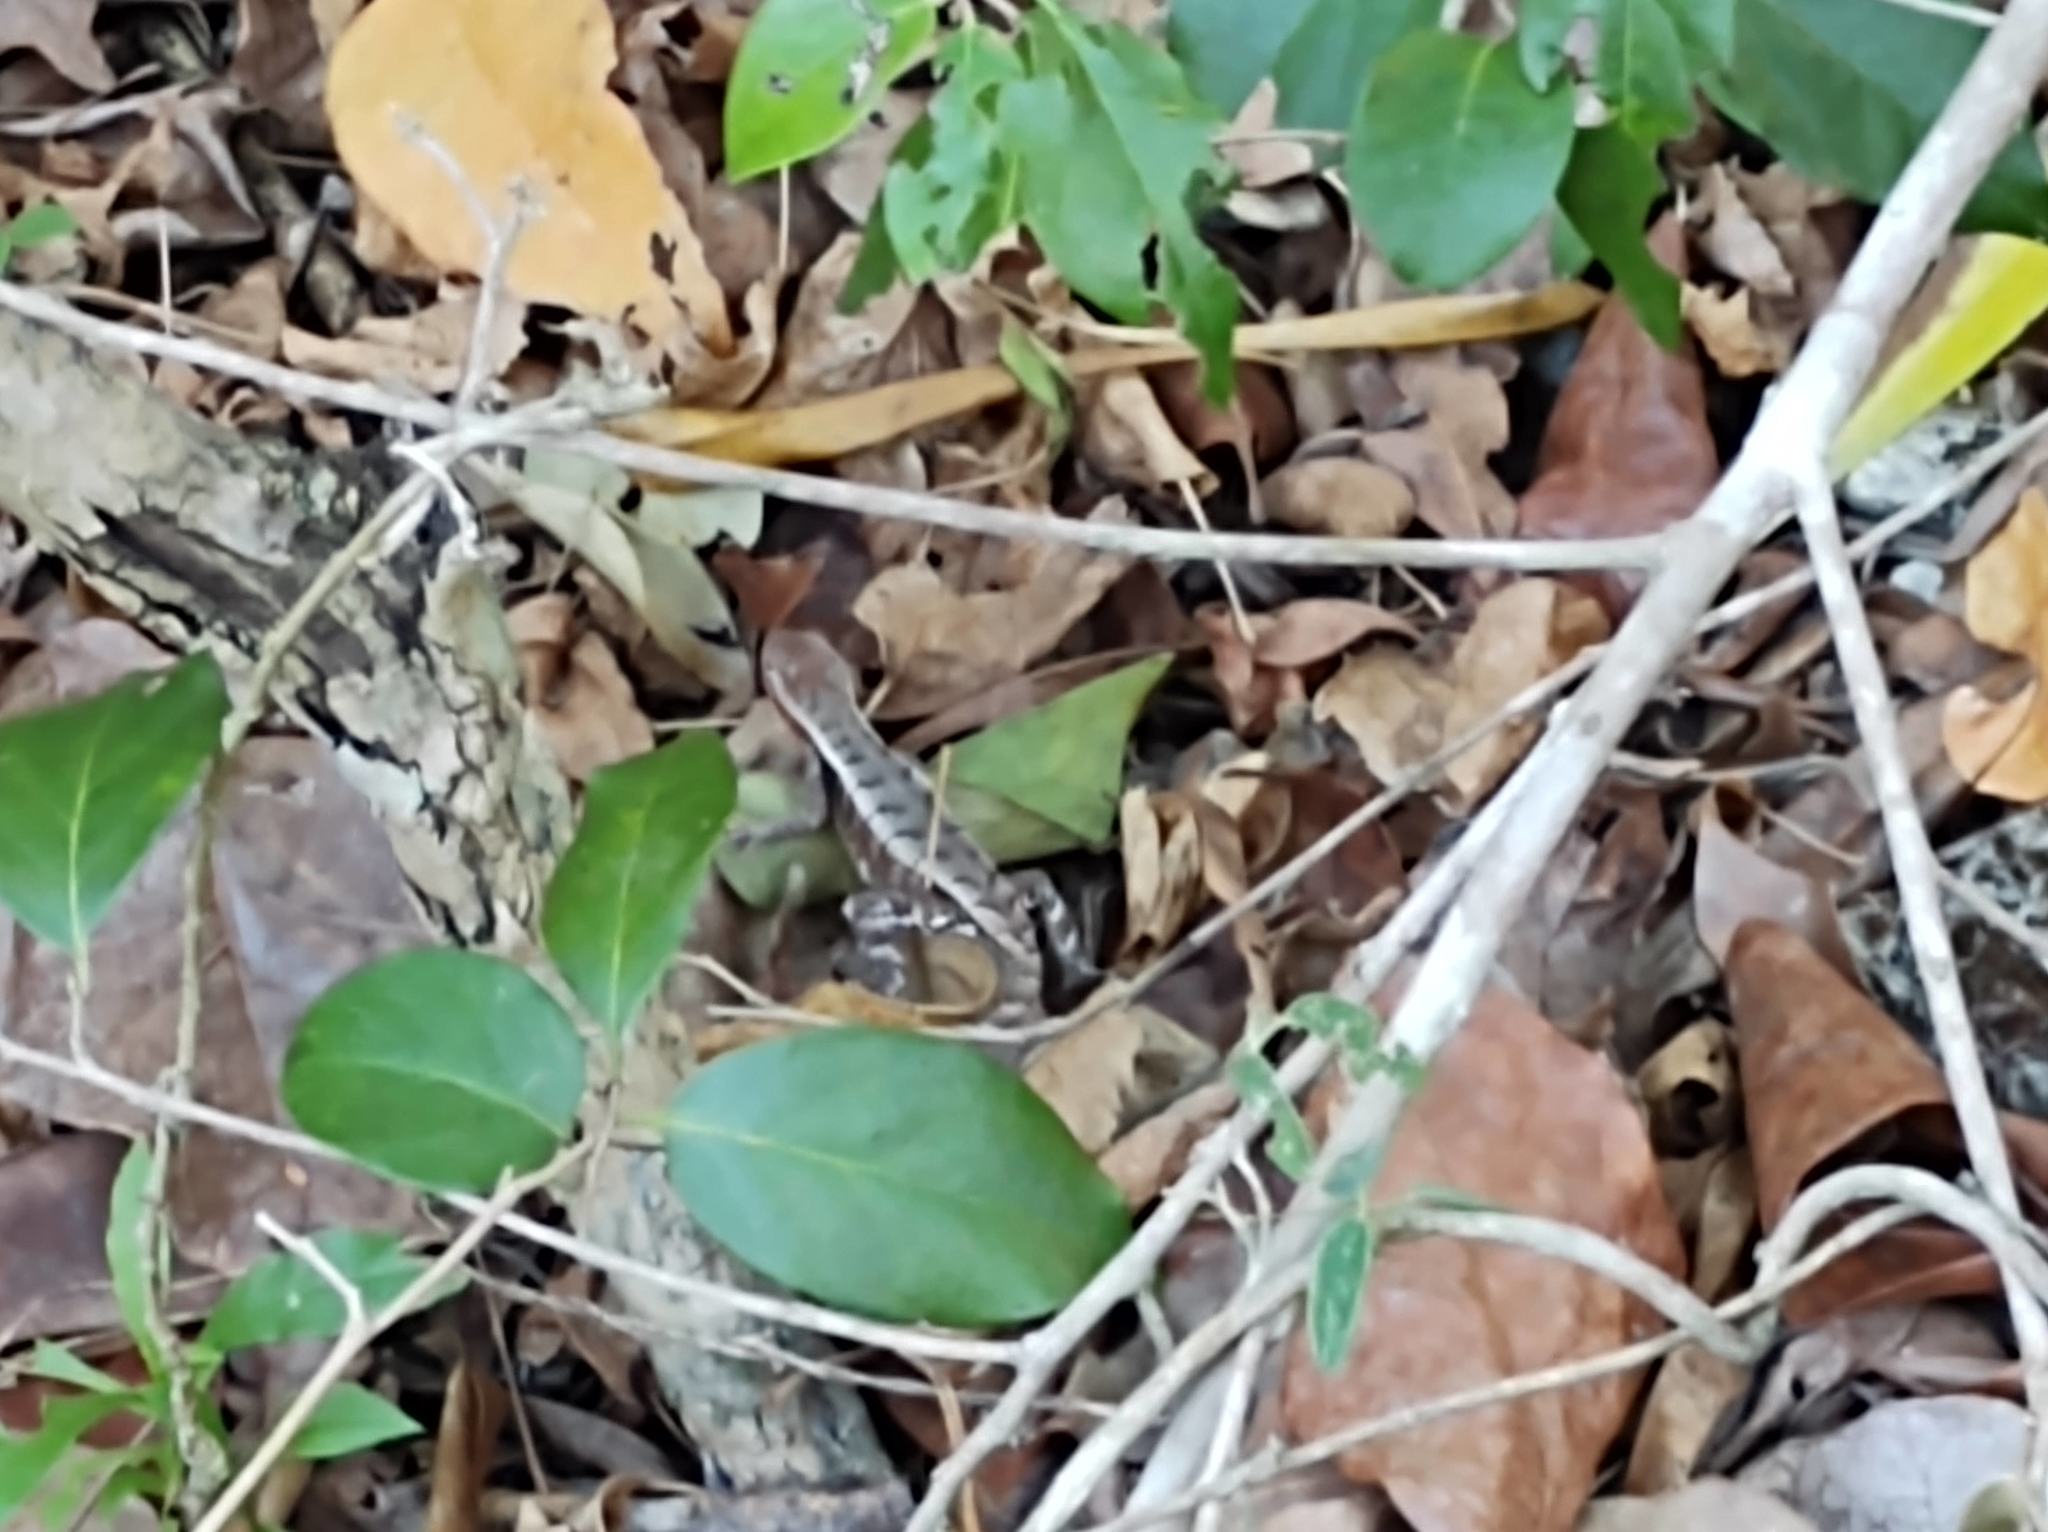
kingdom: Animalia
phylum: Chordata
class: Squamata
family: Phrynosomatidae
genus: Sceloporus
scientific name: Sceloporus chrysostictus
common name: Yellow-spotted spiny lizard
